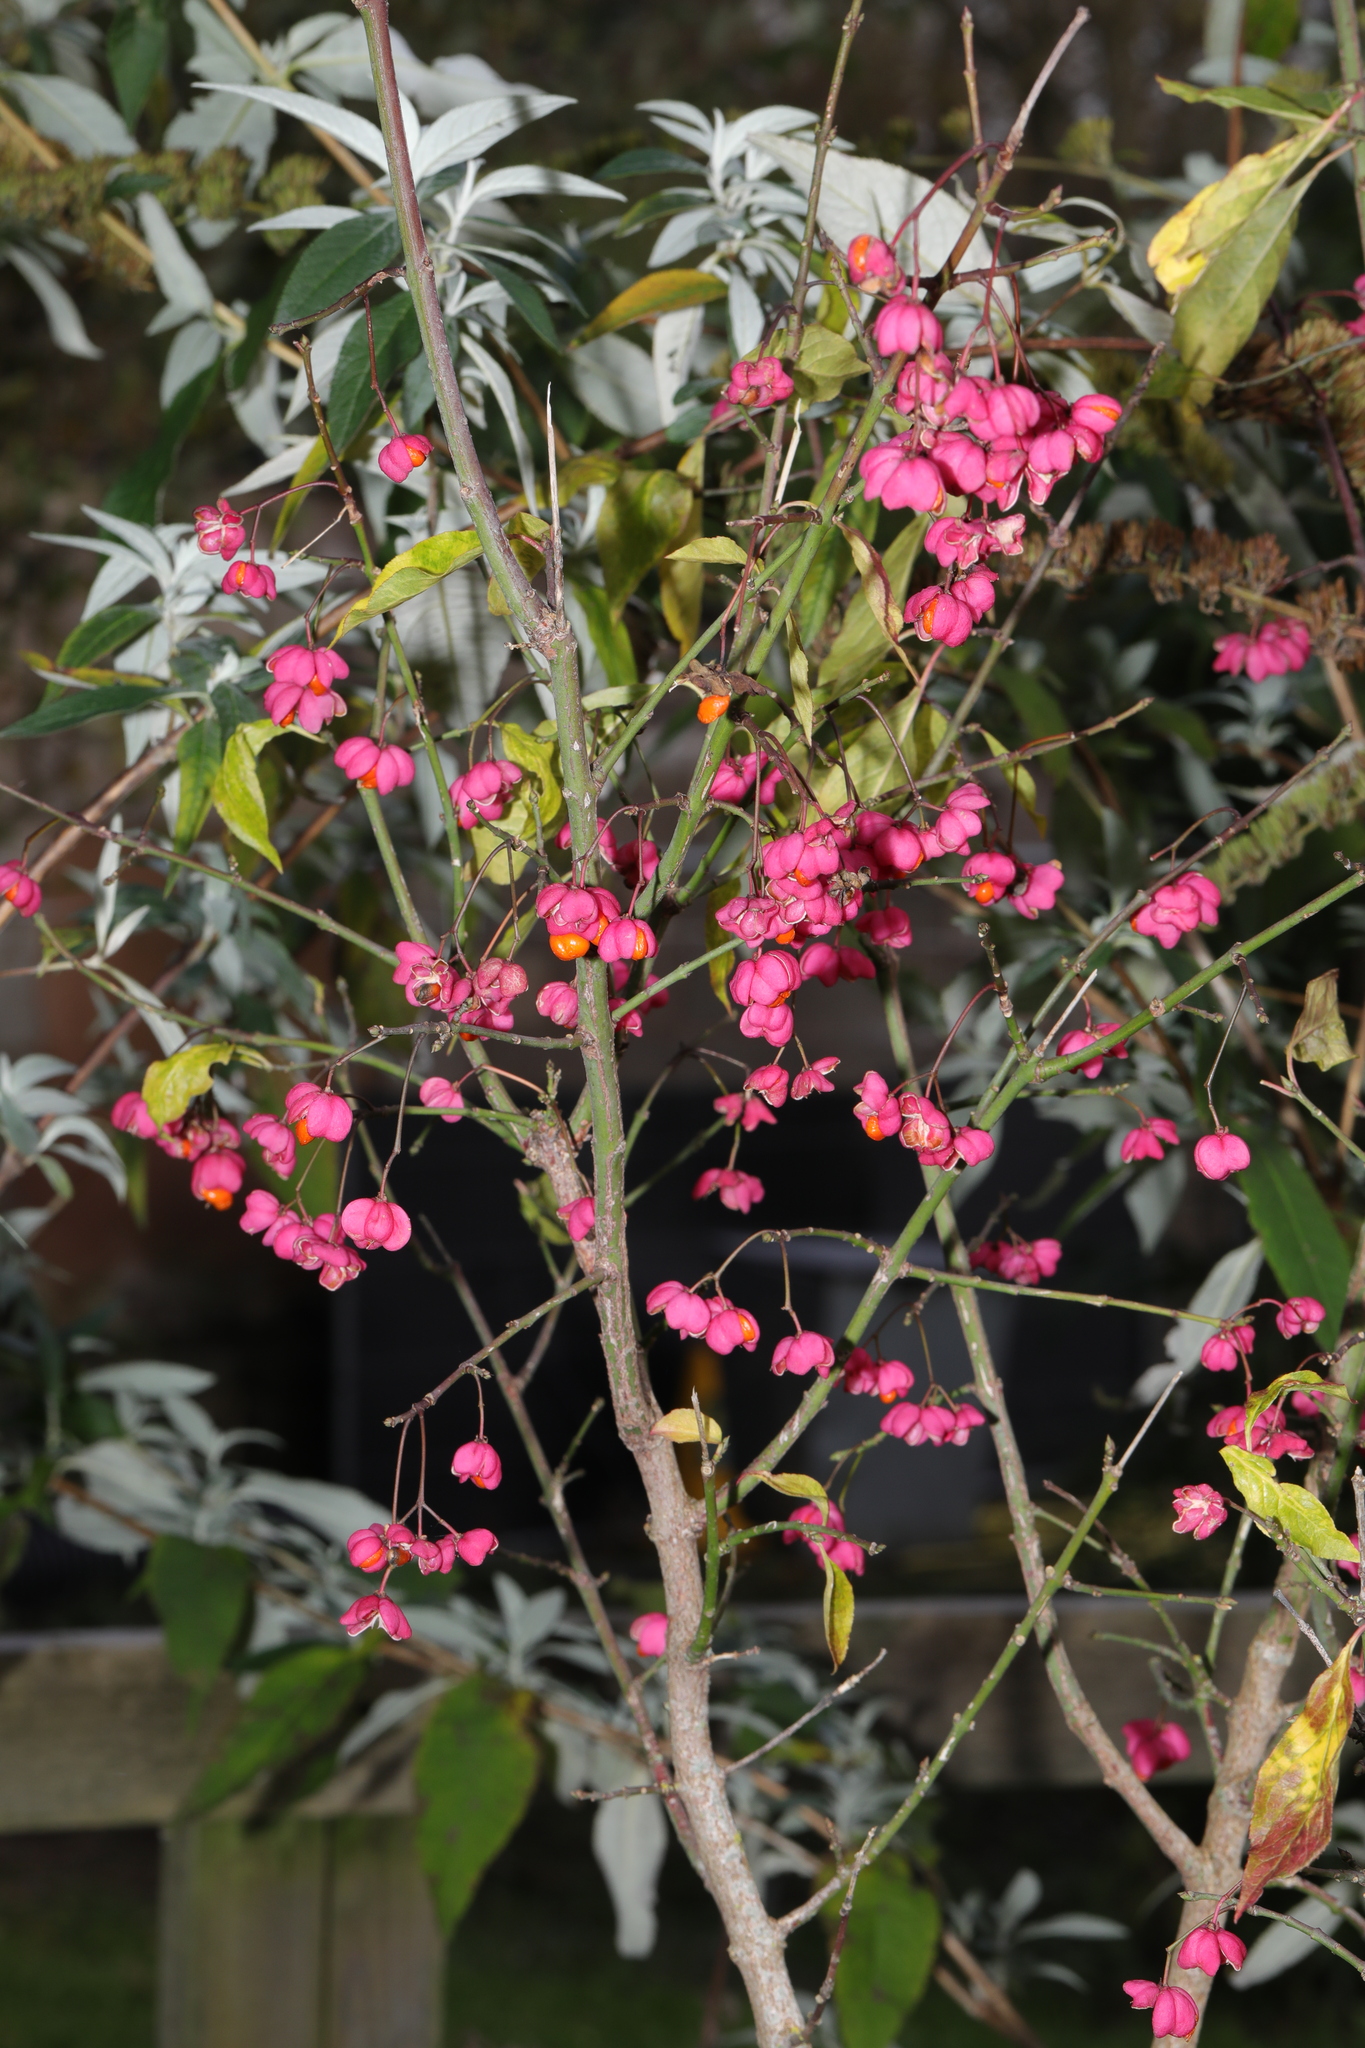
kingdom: Plantae
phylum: Tracheophyta
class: Magnoliopsida
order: Celastrales
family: Celastraceae
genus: Euonymus
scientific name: Euonymus europaeus
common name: Spindle
